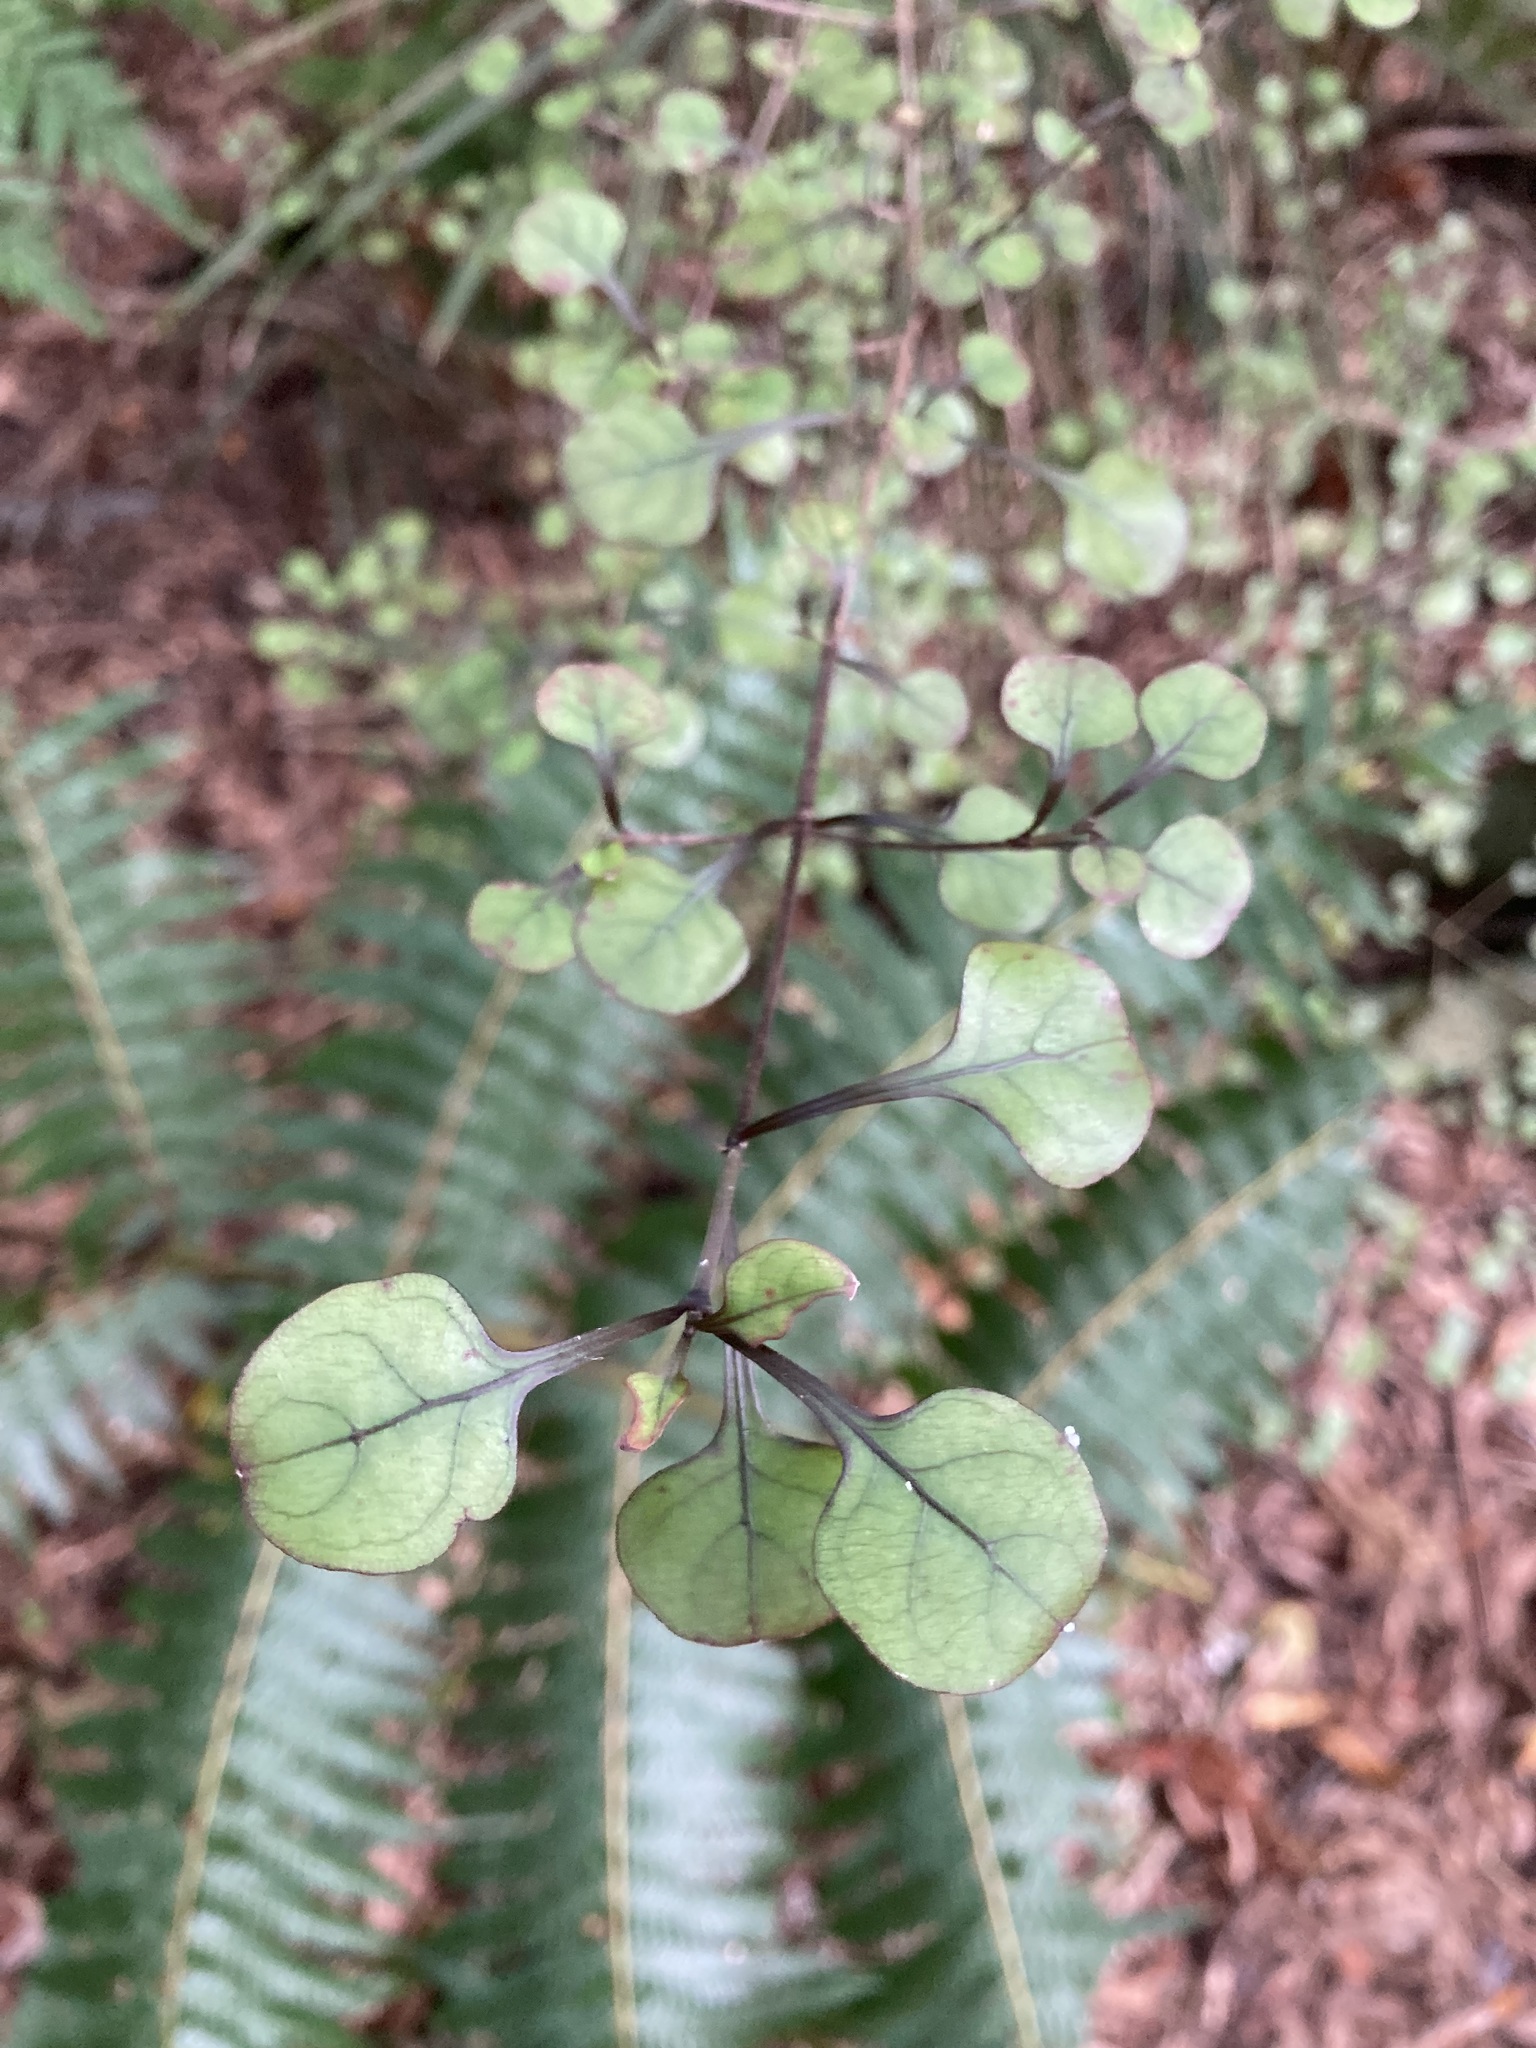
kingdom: Plantae
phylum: Tracheophyta
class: Magnoliopsida
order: Gentianales
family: Rubiaceae
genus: Coprosma
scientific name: Coprosma arborea
